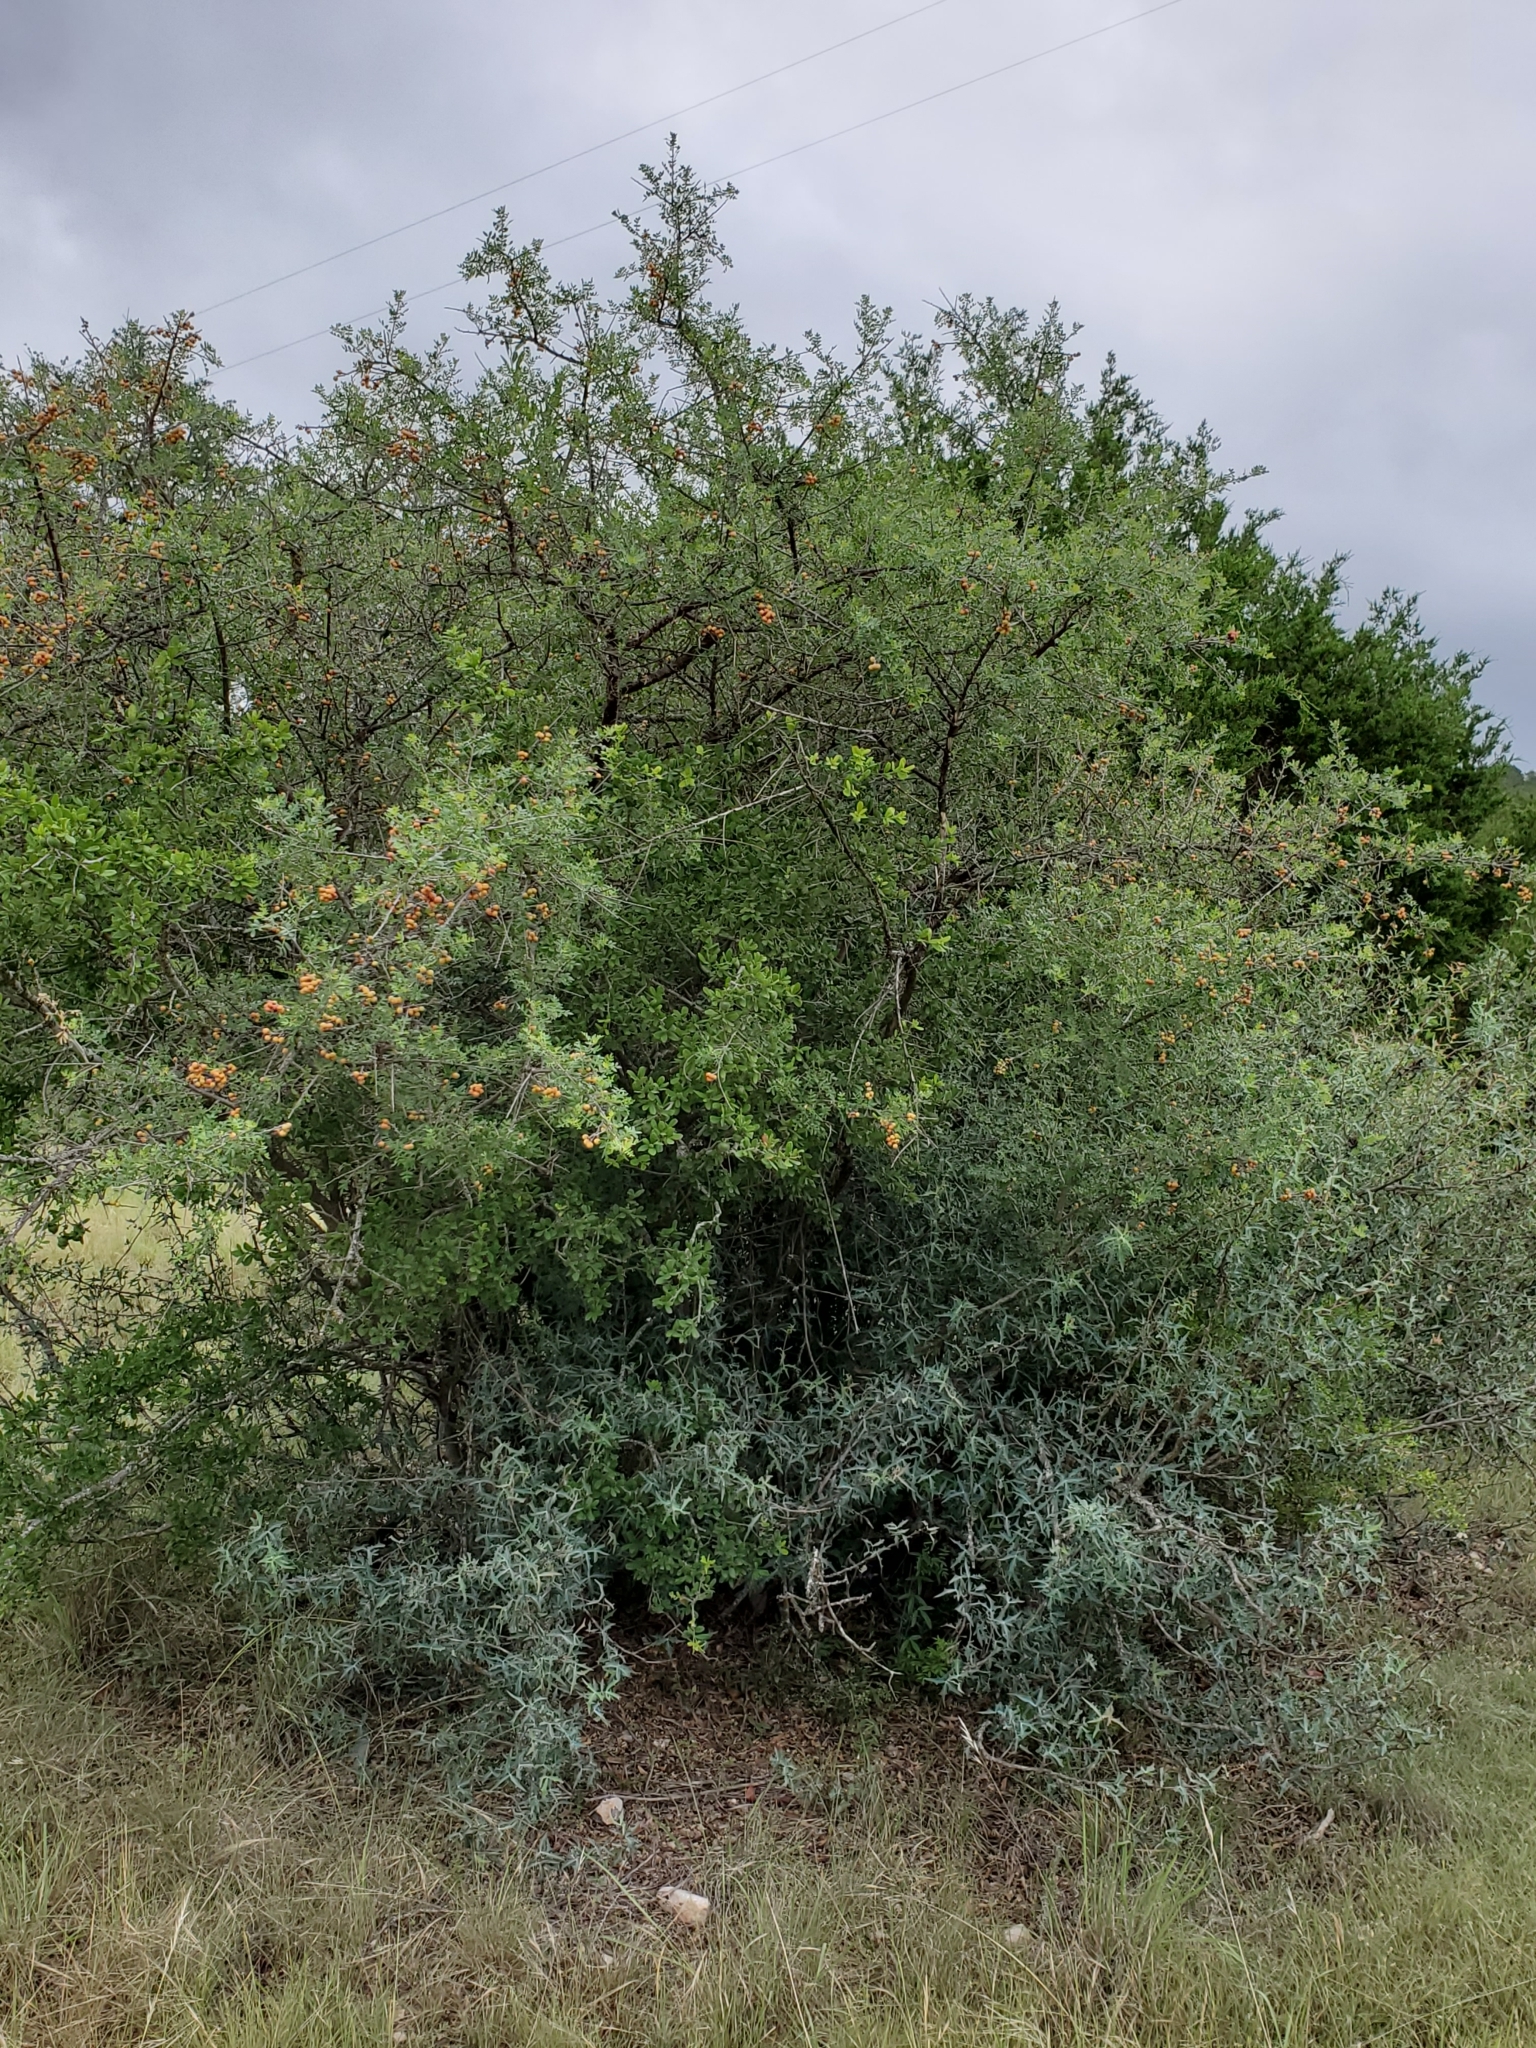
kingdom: Plantae
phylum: Tracheophyta
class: Magnoliopsida
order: Sapindales
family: Anacardiaceae
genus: Rhus
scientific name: Rhus microphylla
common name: Desert sumac
